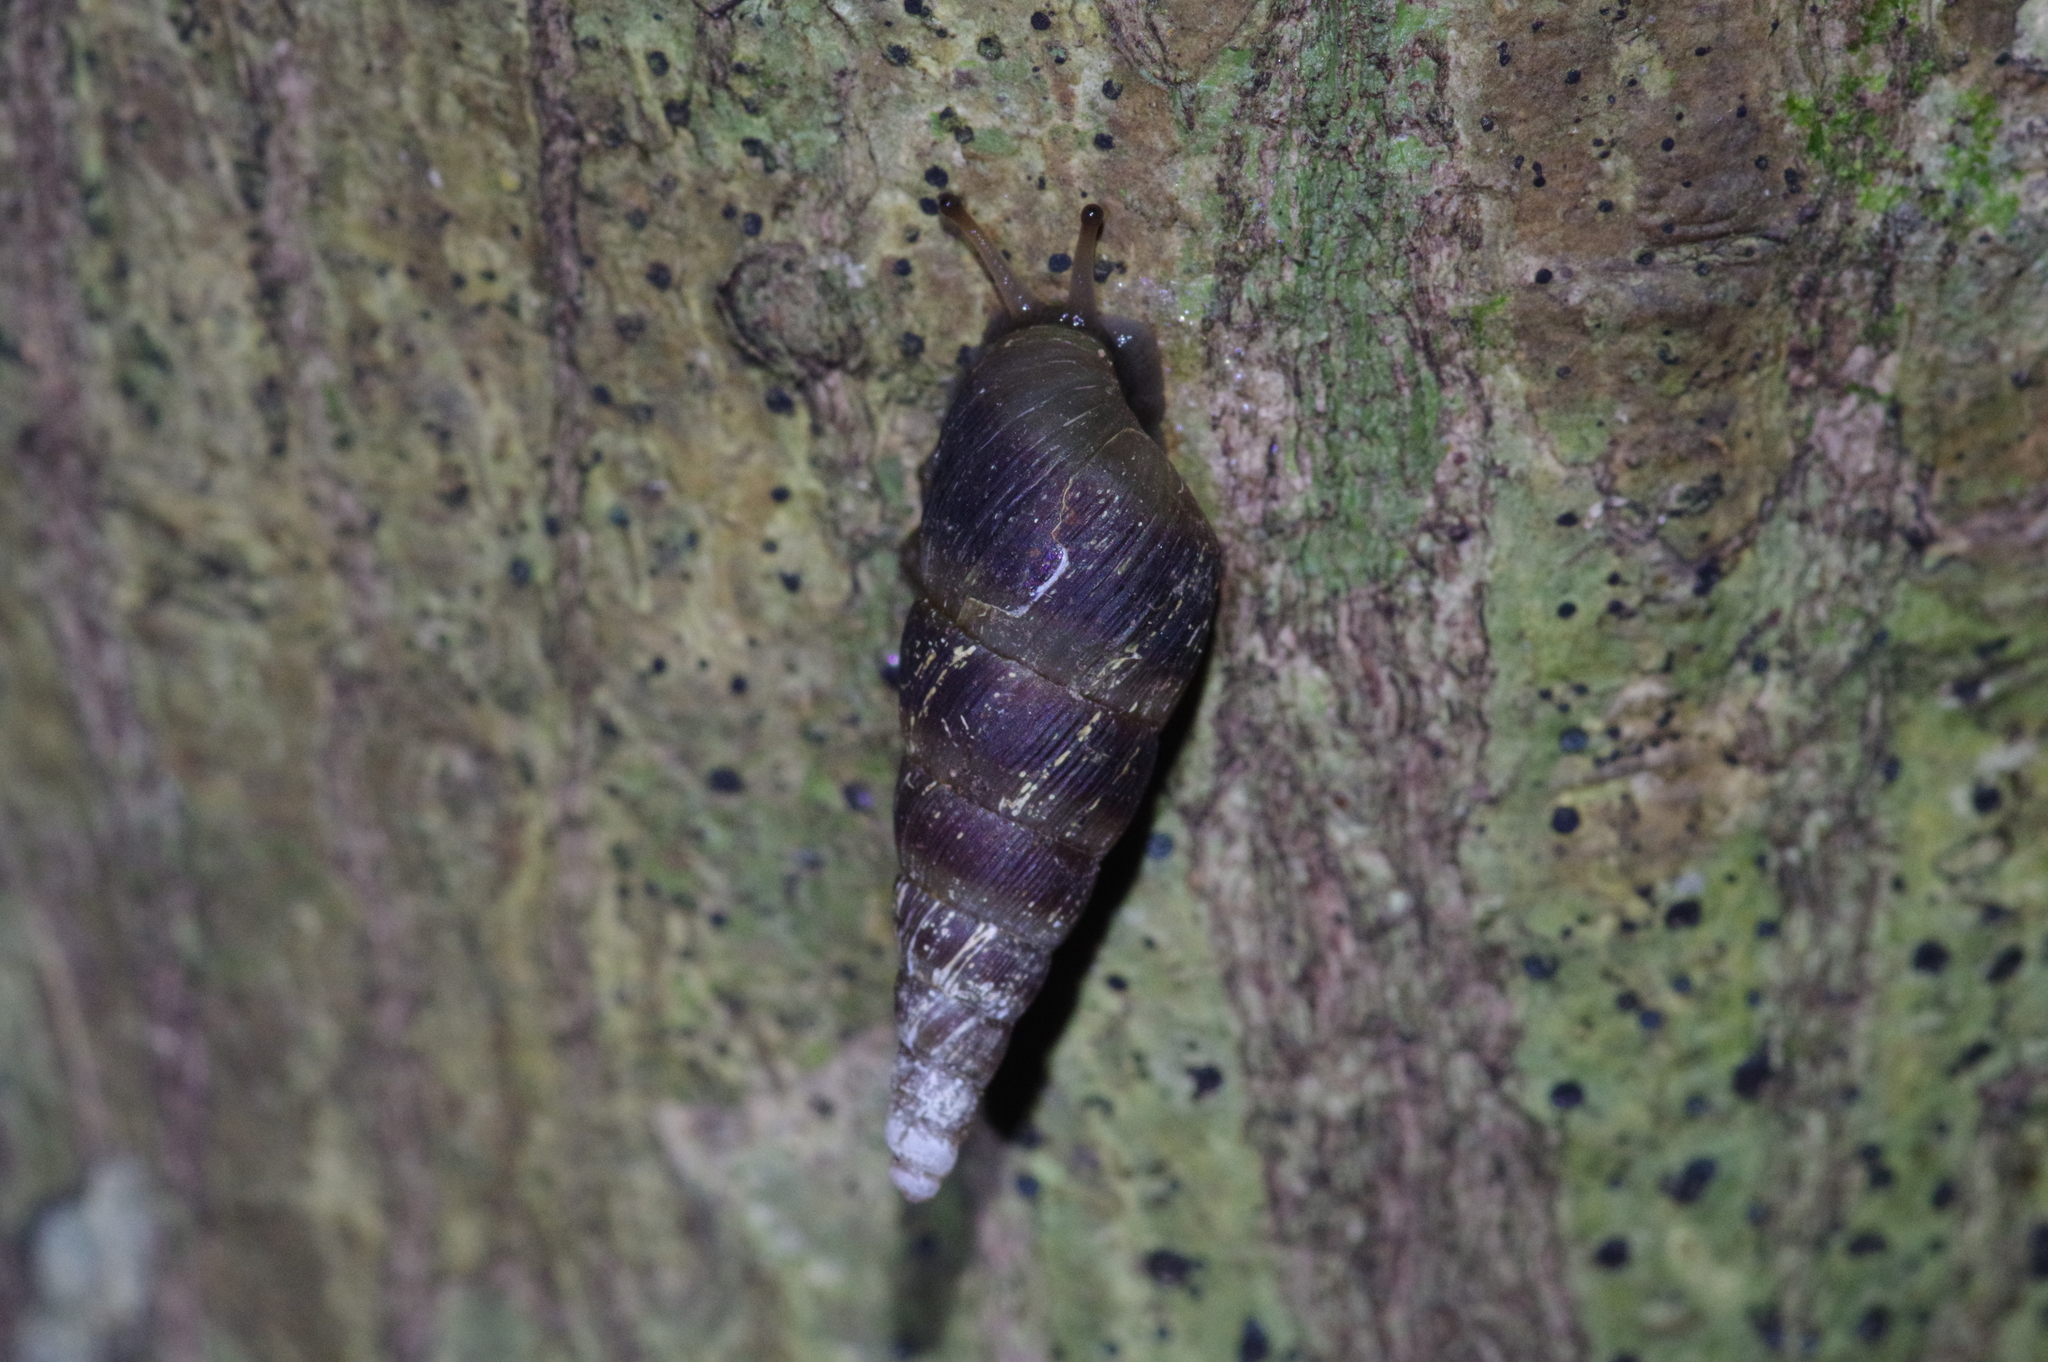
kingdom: Animalia
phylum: Mollusca
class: Gastropoda
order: Stylommatophora
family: Clausiliidae
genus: Stereophaedusa
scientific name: Stereophaedusa valida
